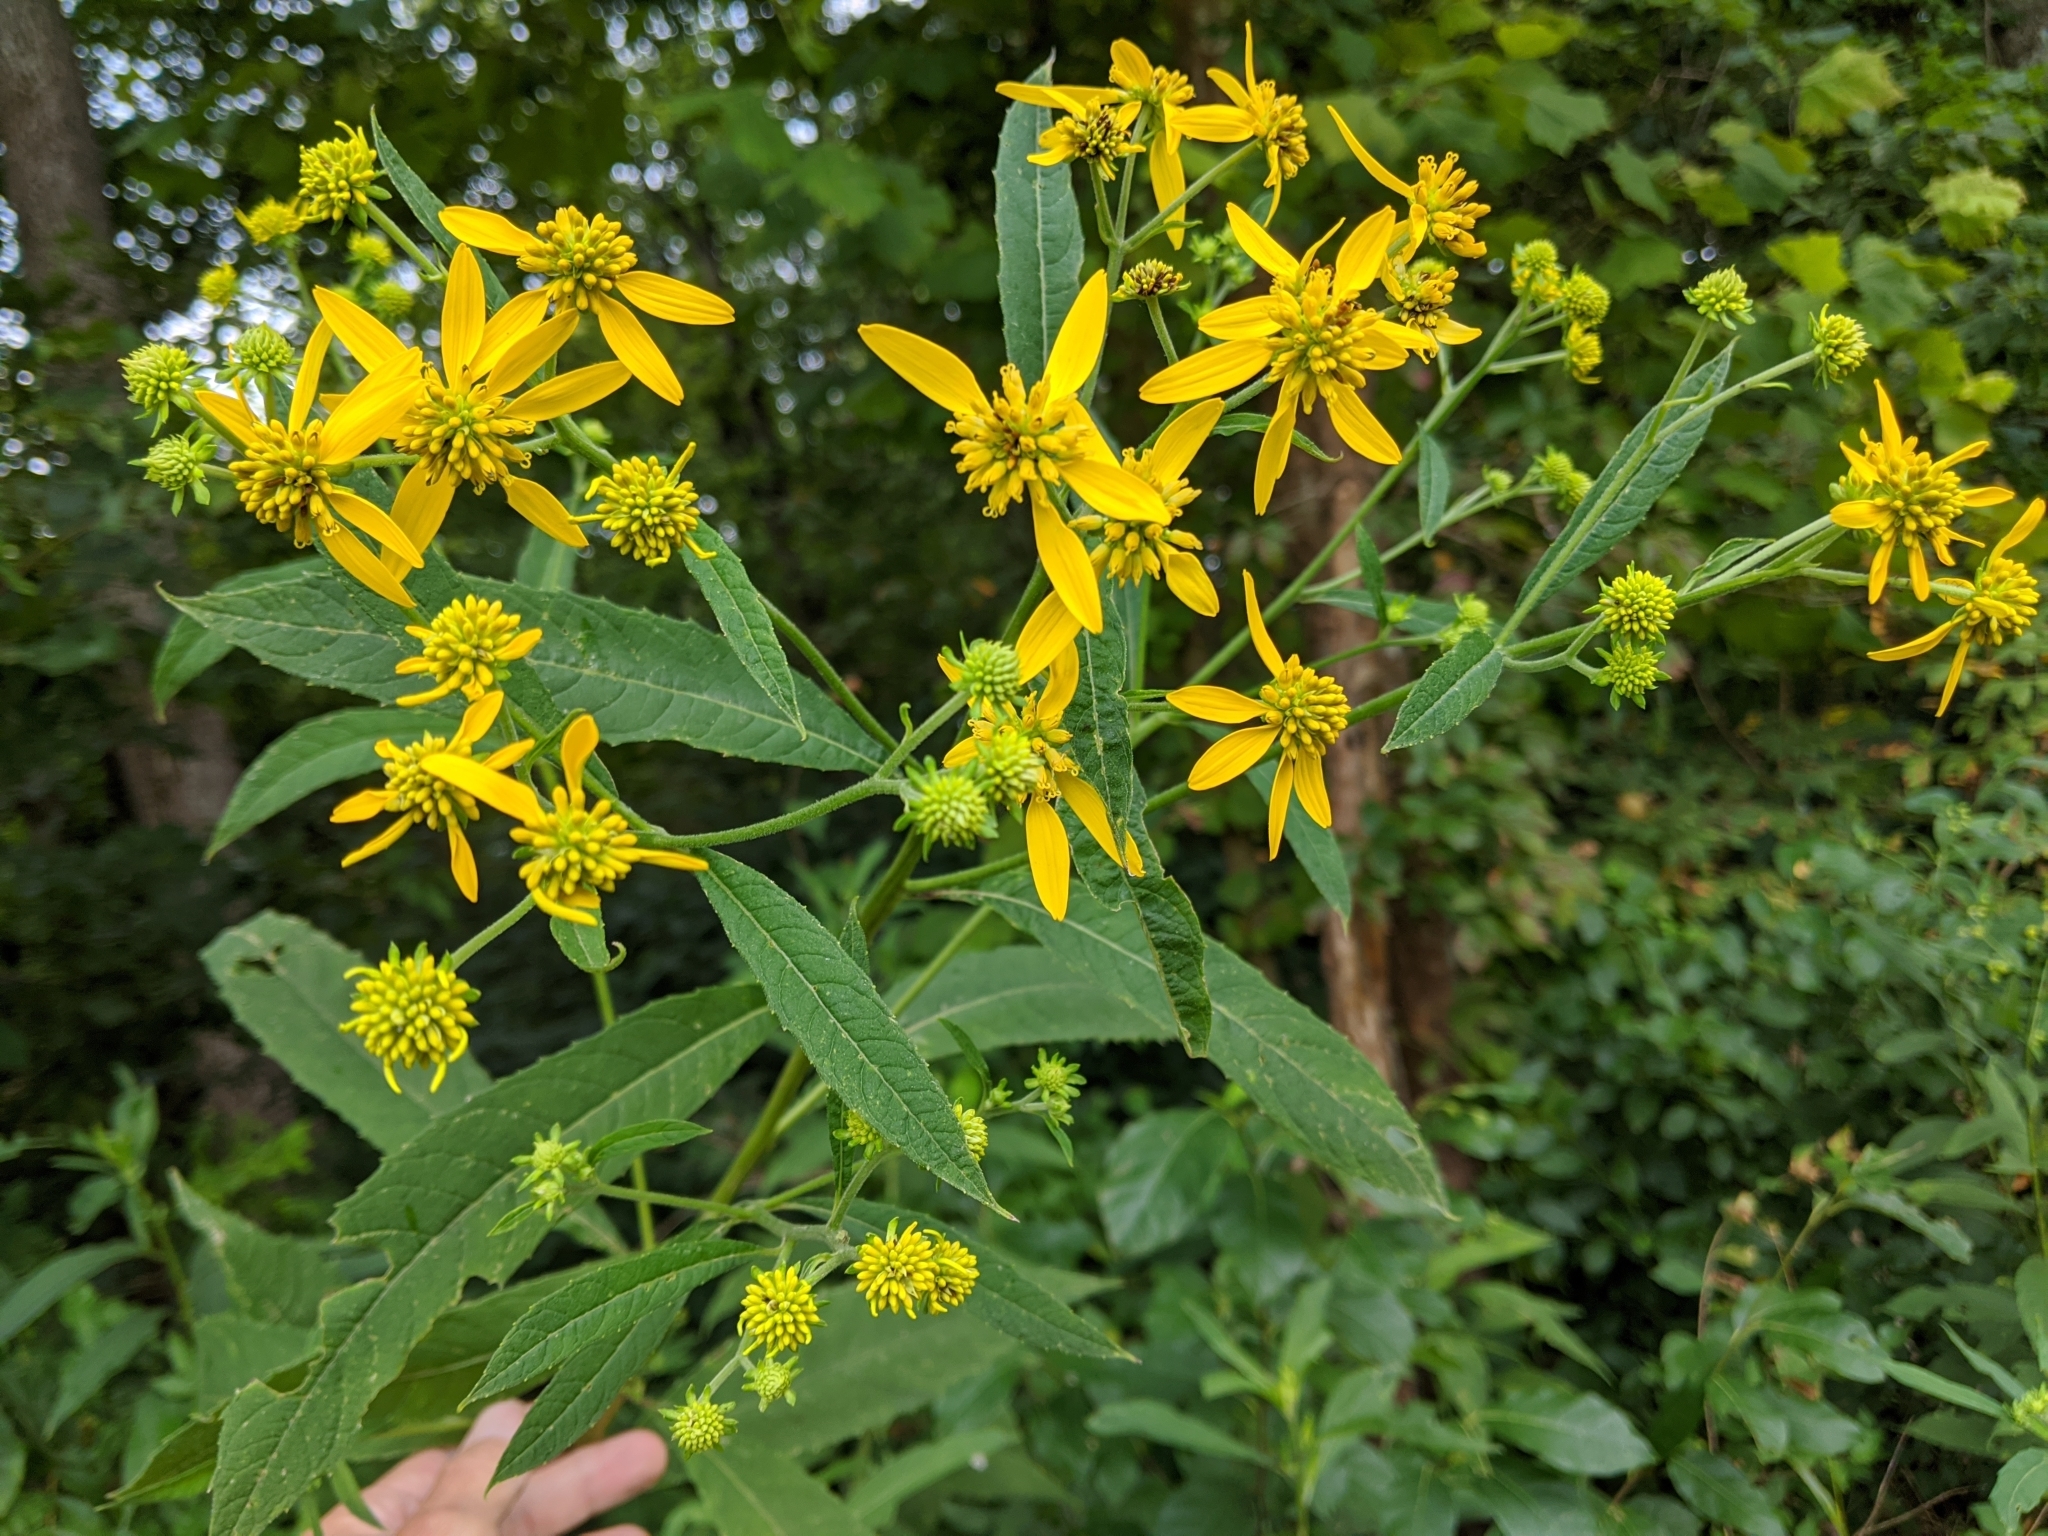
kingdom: Plantae
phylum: Tracheophyta
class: Magnoliopsida
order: Asterales
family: Asteraceae
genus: Verbesina
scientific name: Verbesina alternifolia
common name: Wingstem
